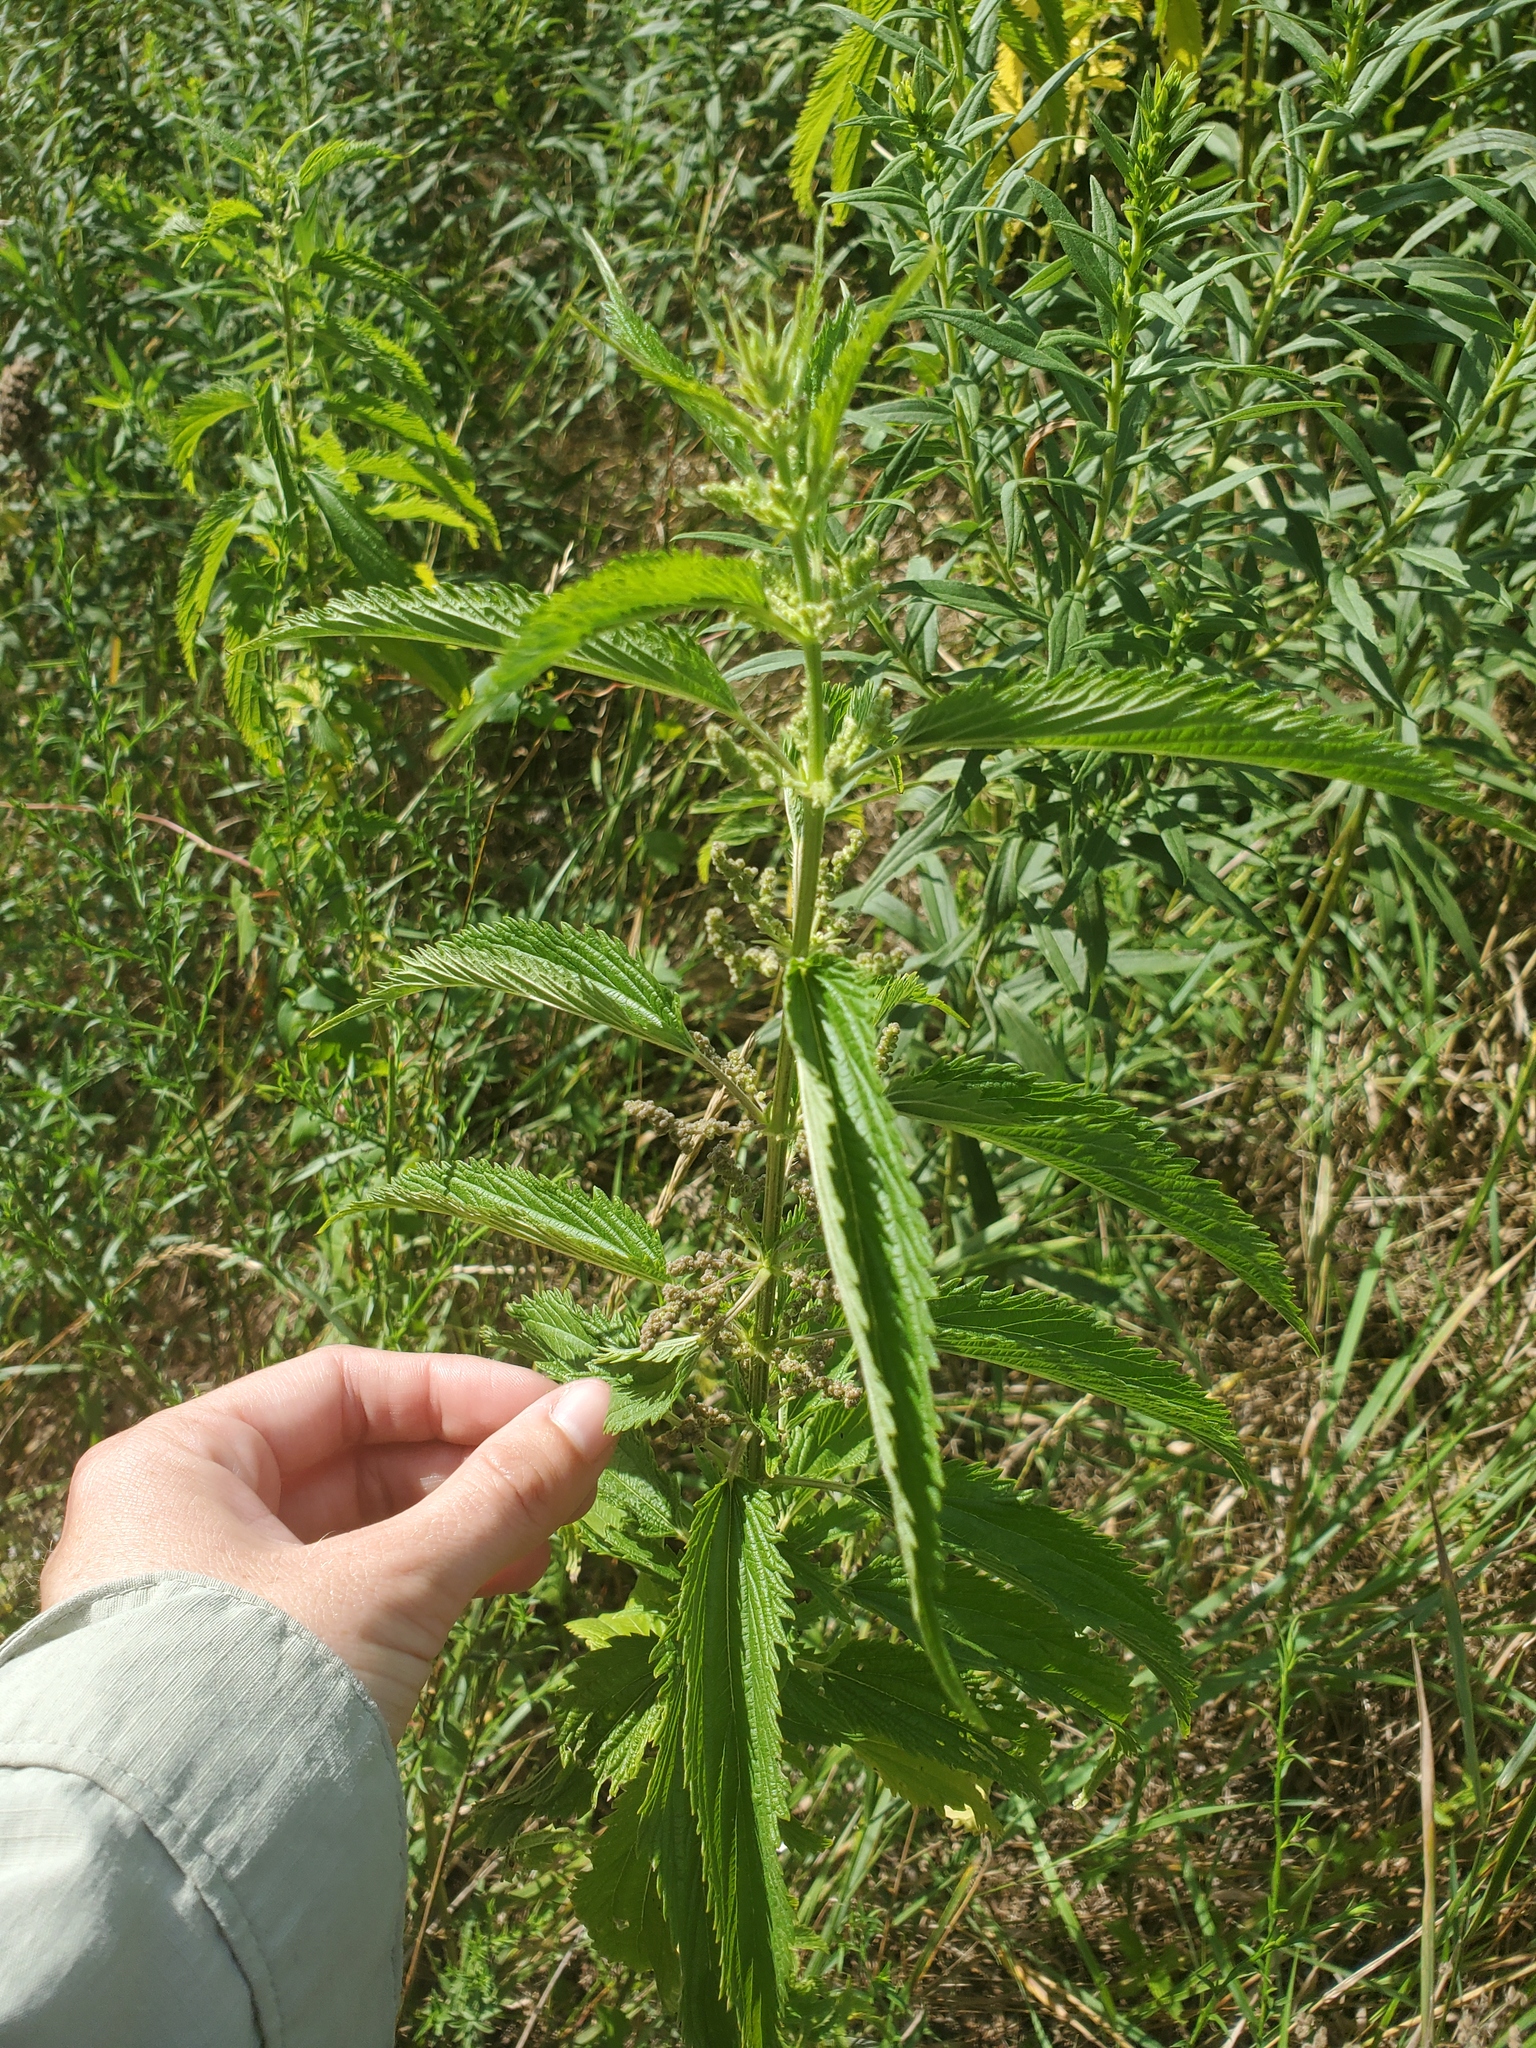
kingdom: Plantae
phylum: Tracheophyta
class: Magnoliopsida
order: Rosales
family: Urticaceae
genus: Urtica
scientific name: Urtica gracilis
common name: Slender stinging nettle
